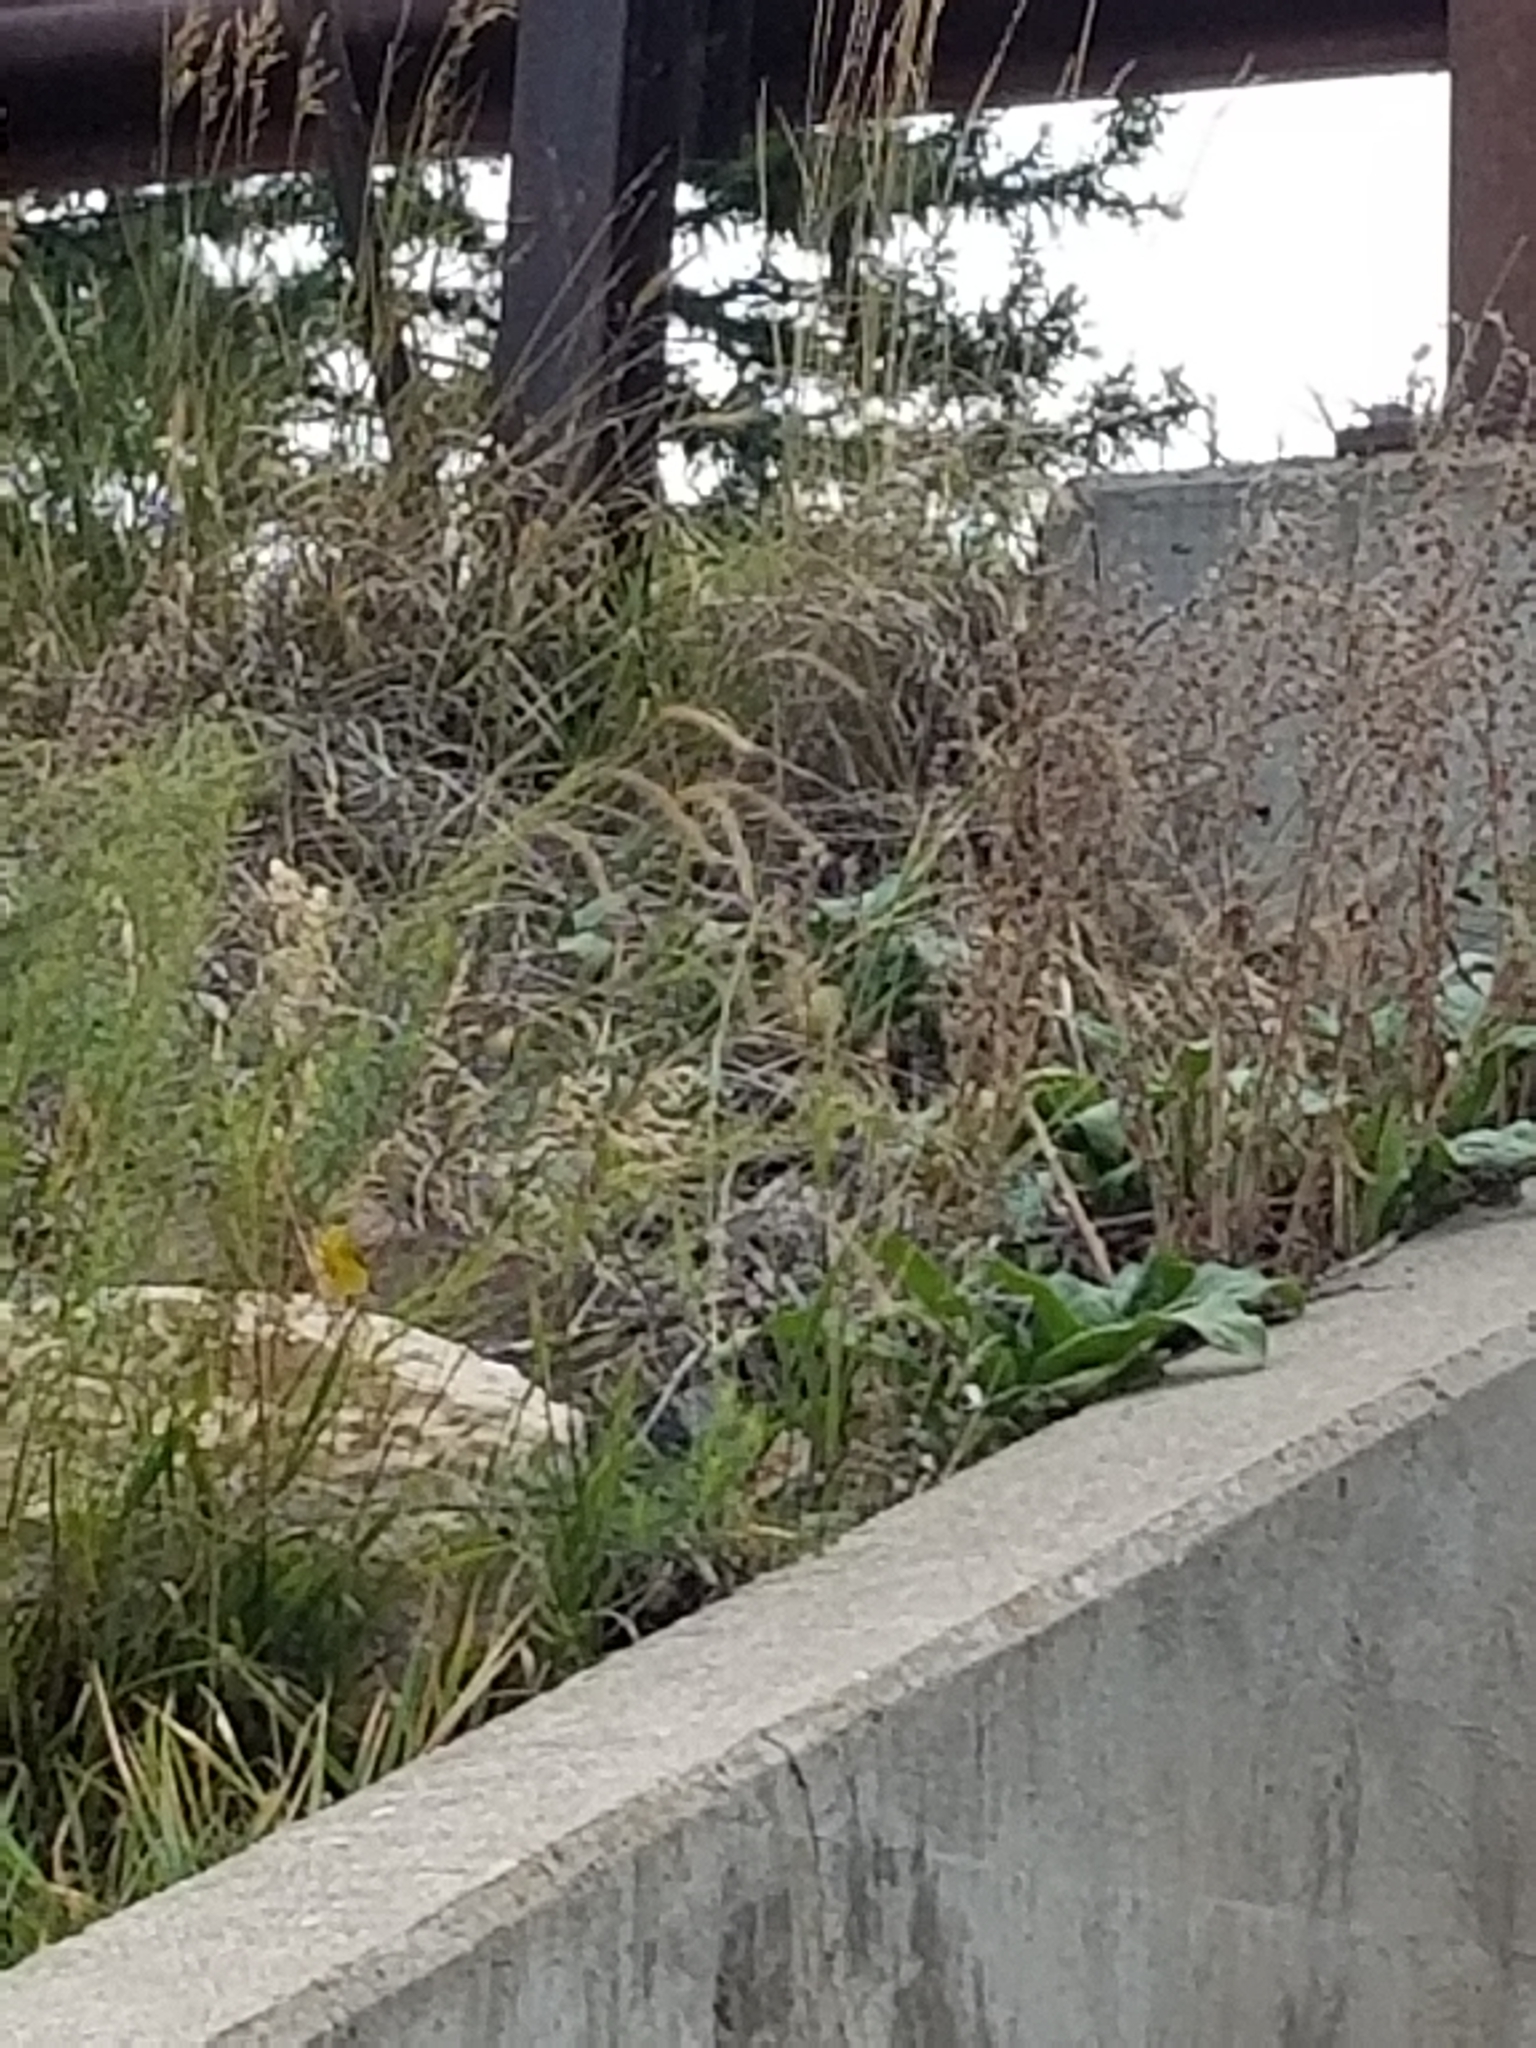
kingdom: Animalia
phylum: Chordata
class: Aves
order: Passeriformes
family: Parulidae
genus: Setophaga
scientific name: Setophaga petechia
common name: Yellow warbler
